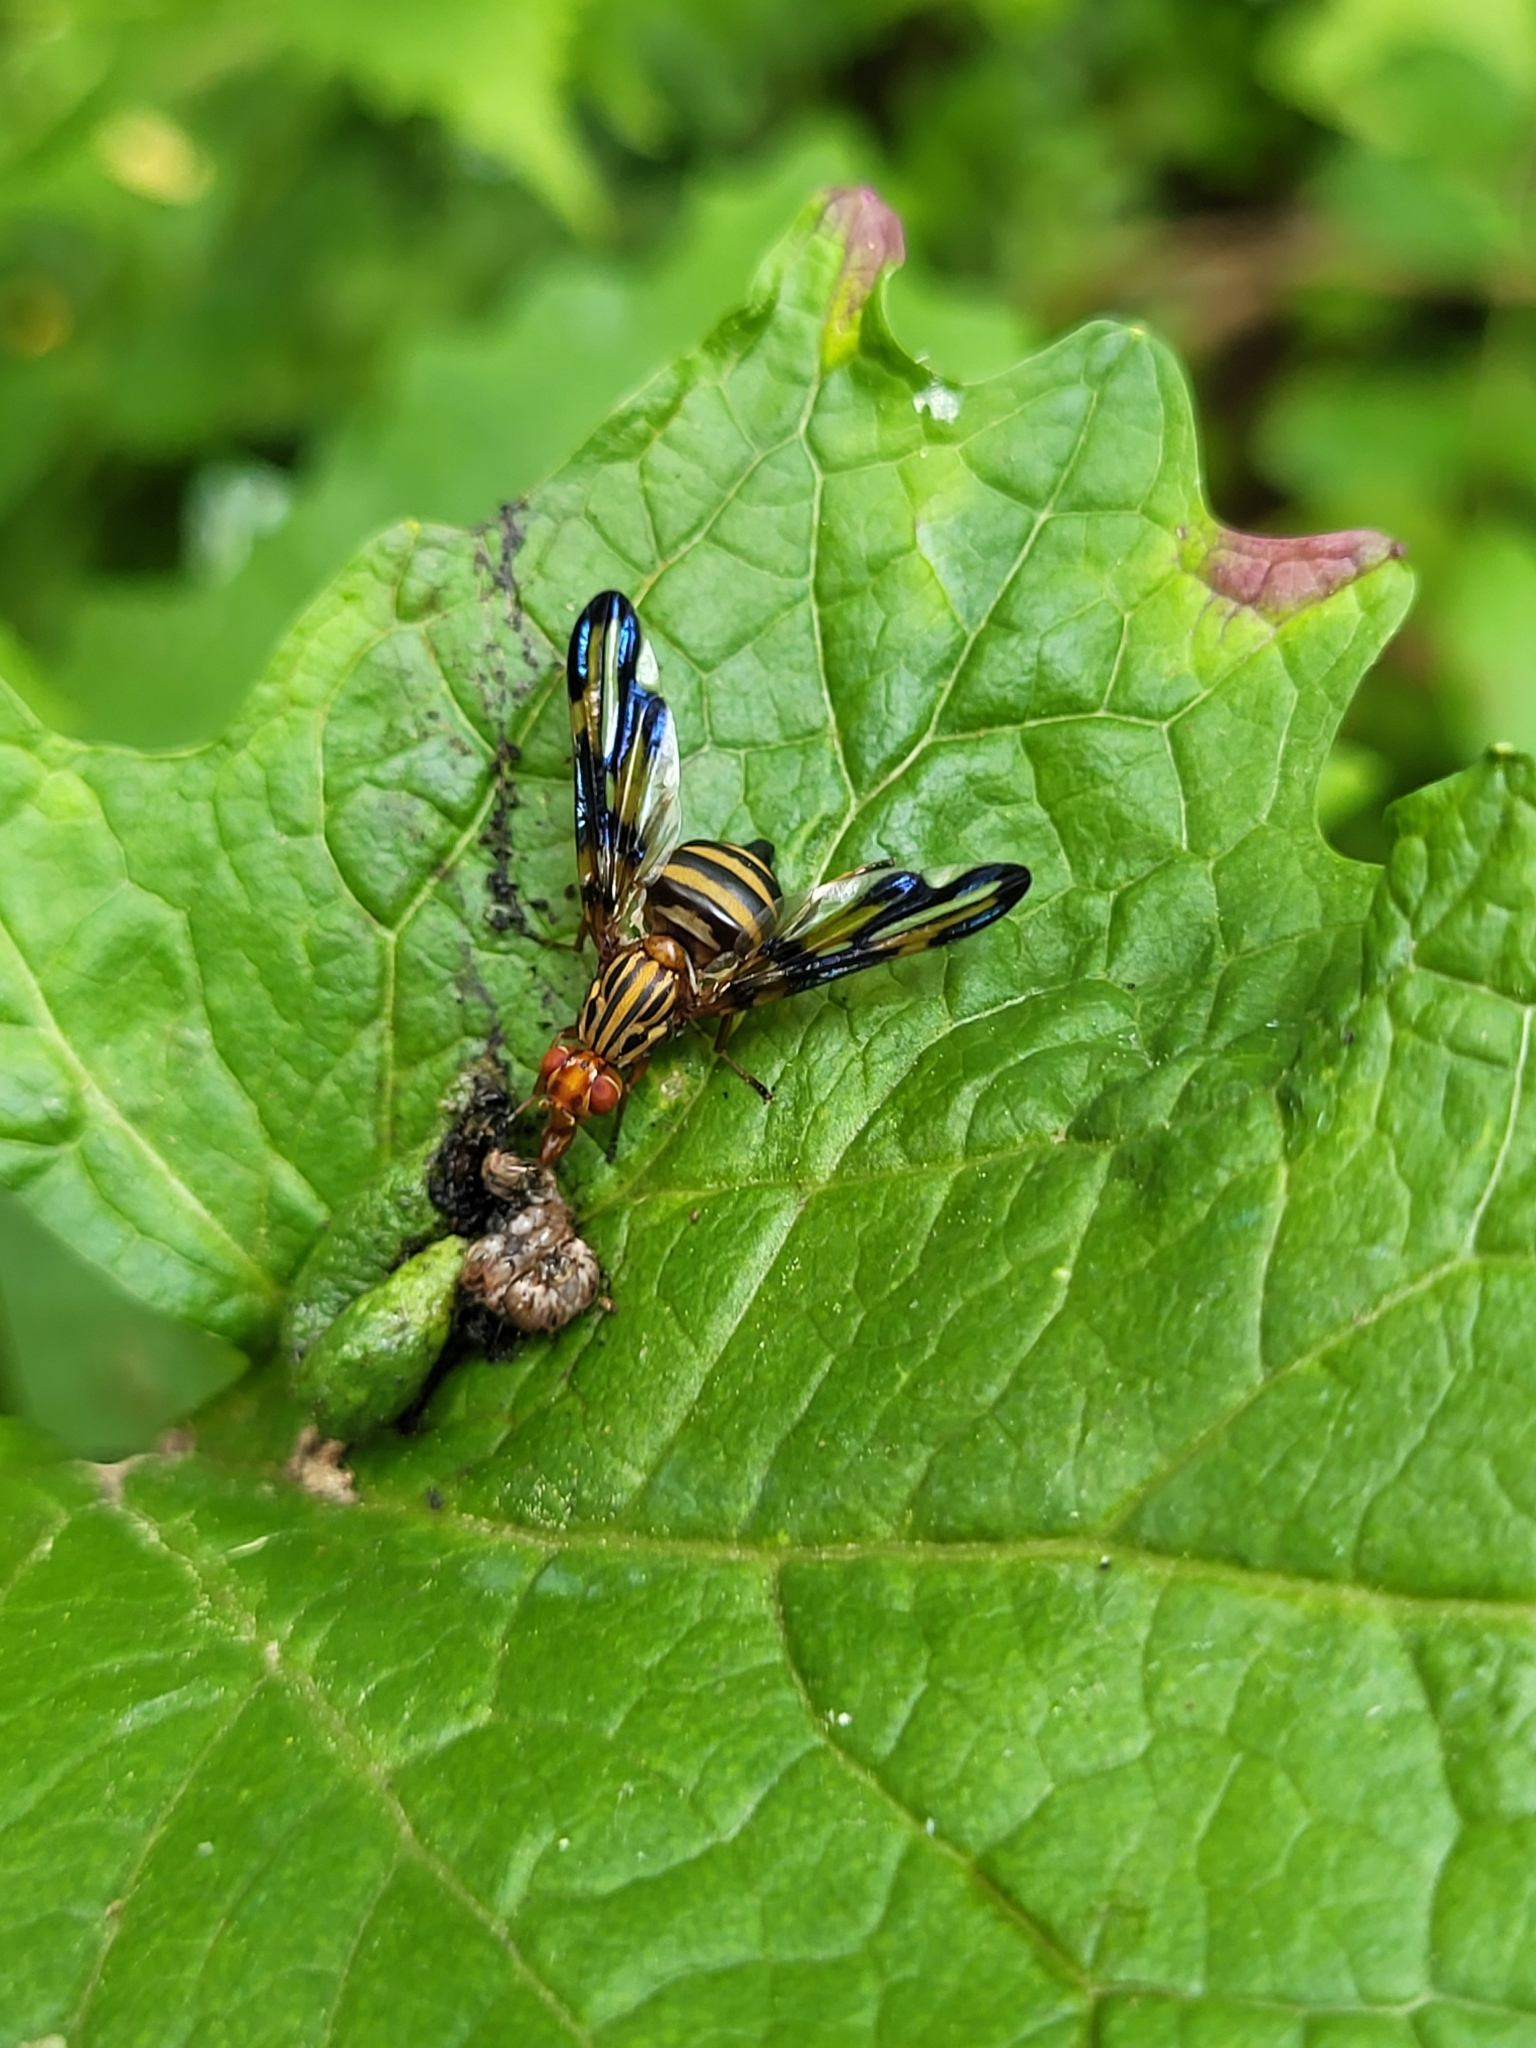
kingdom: Animalia
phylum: Arthropoda
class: Insecta
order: Diptera
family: Ulidiidae
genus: Idana
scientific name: Idana marginata
